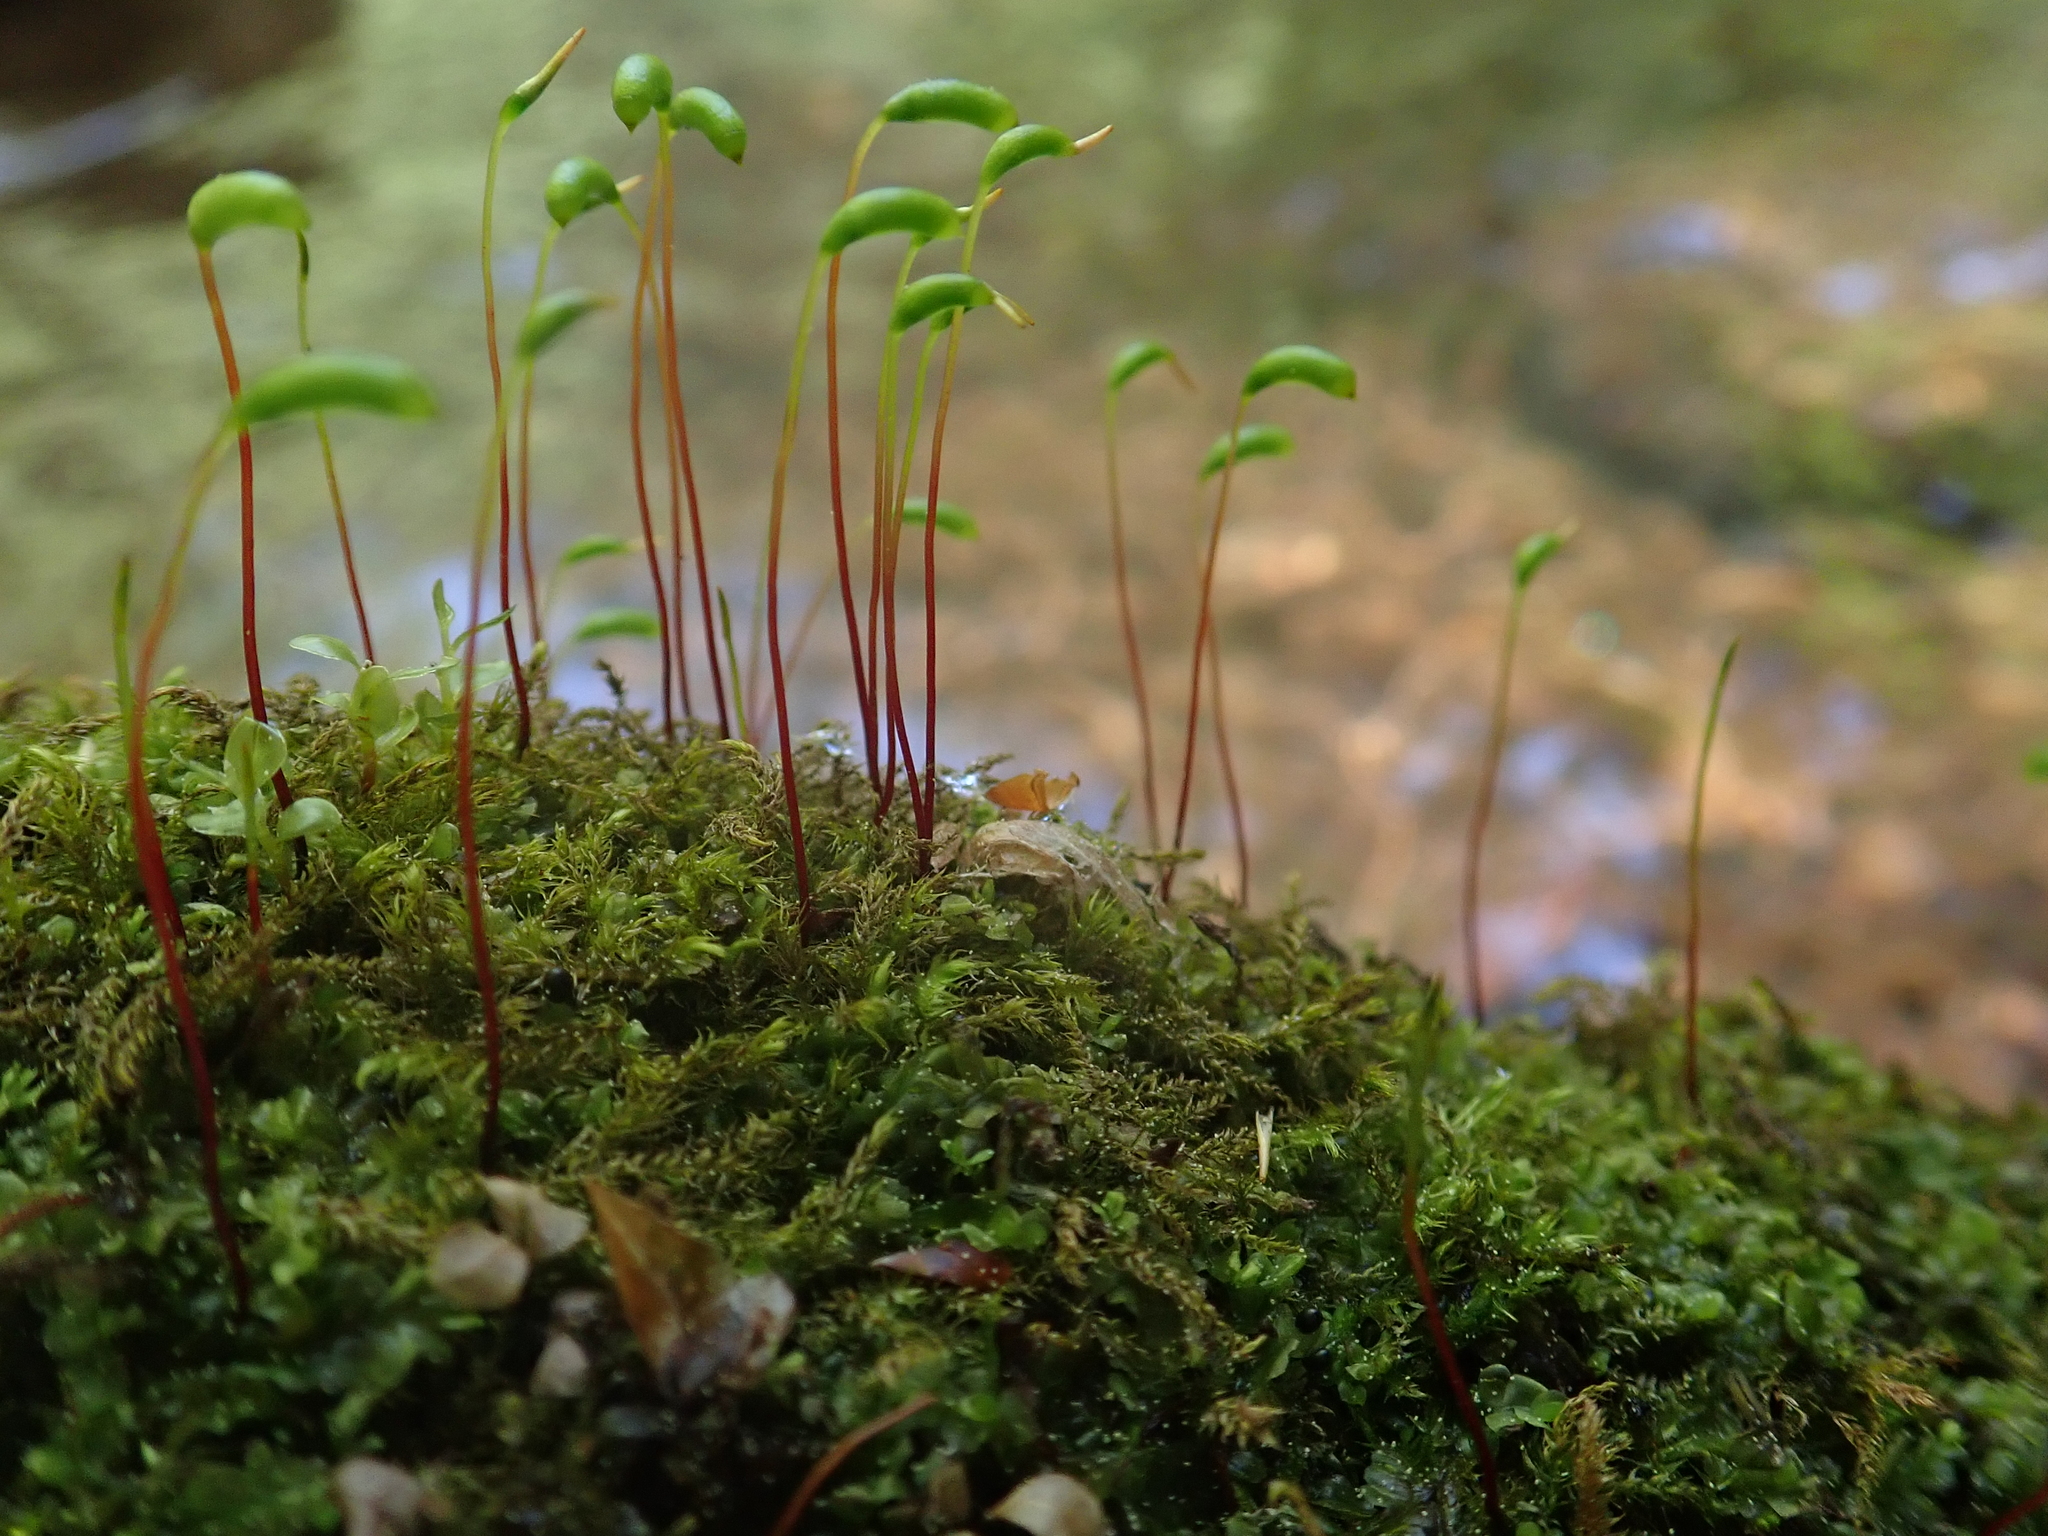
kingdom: Plantae
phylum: Bryophyta
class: Bryopsida
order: Hypnales
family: Amblystegiaceae
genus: Amblystegium
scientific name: Amblystegium serpens
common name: Jurkatzka's feather moss
